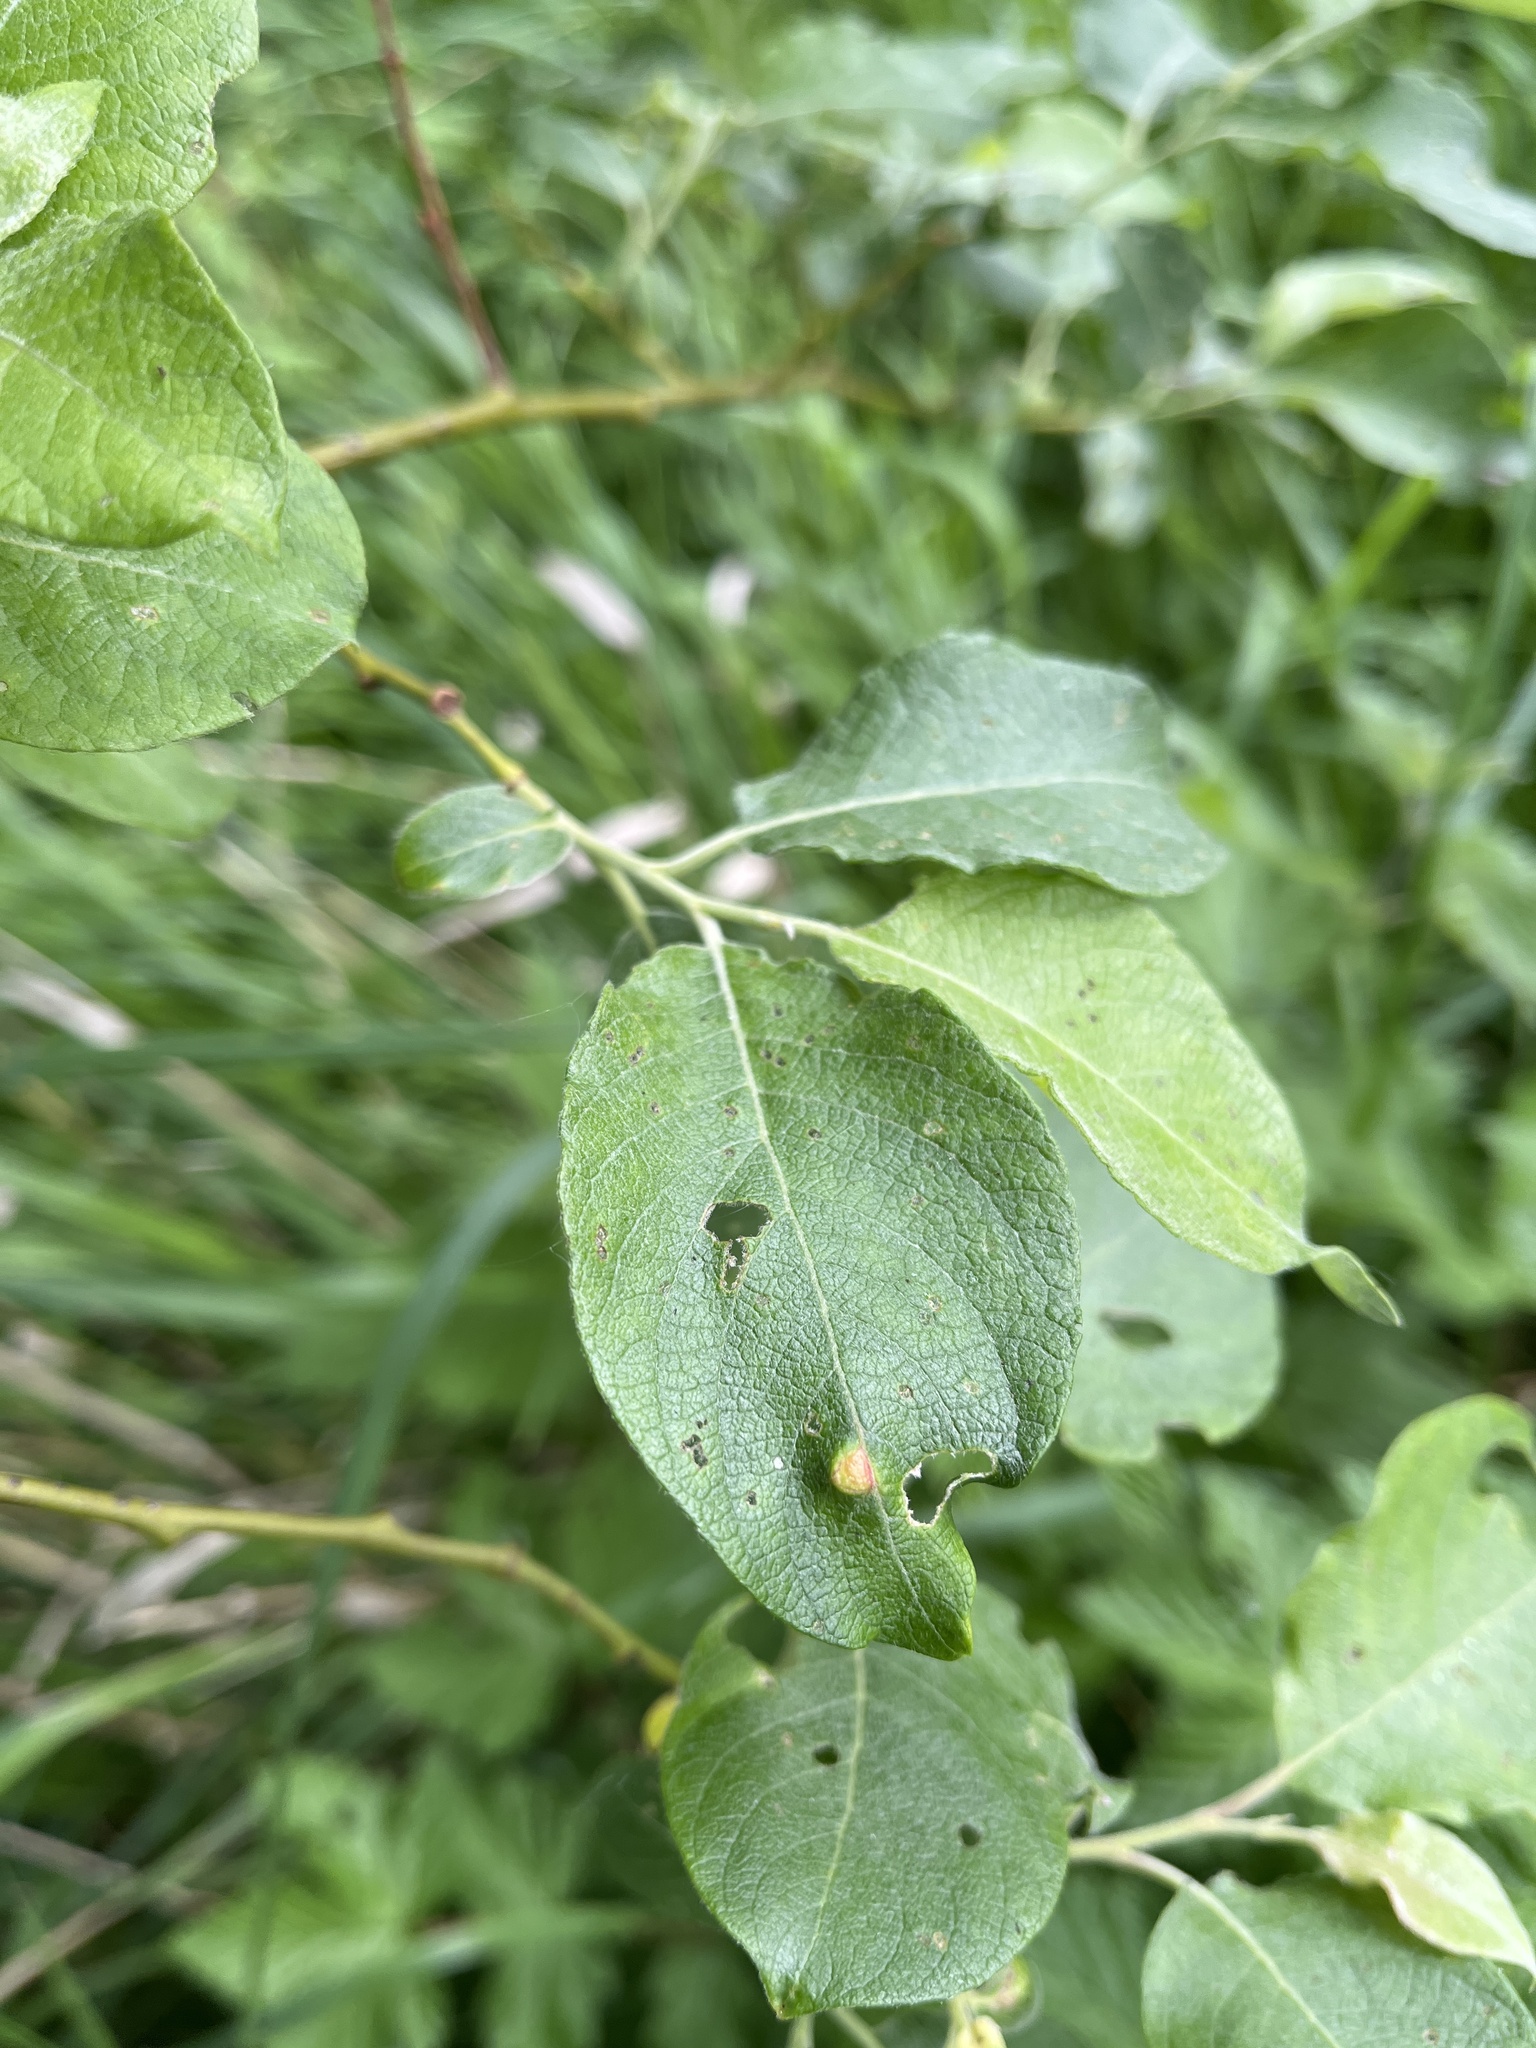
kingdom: Animalia
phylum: Arthropoda
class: Insecta
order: Hymenoptera
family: Tenthredinidae
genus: Pontania
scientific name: Pontania pedunculi
